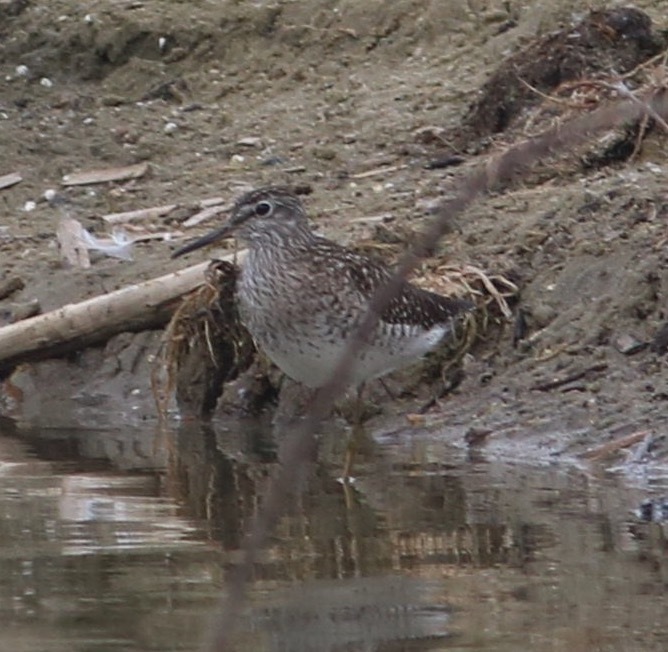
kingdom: Animalia
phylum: Chordata
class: Aves
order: Charadriiformes
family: Scolopacidae
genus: Tringa
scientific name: Tringa glareola
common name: Wood sandpiper
